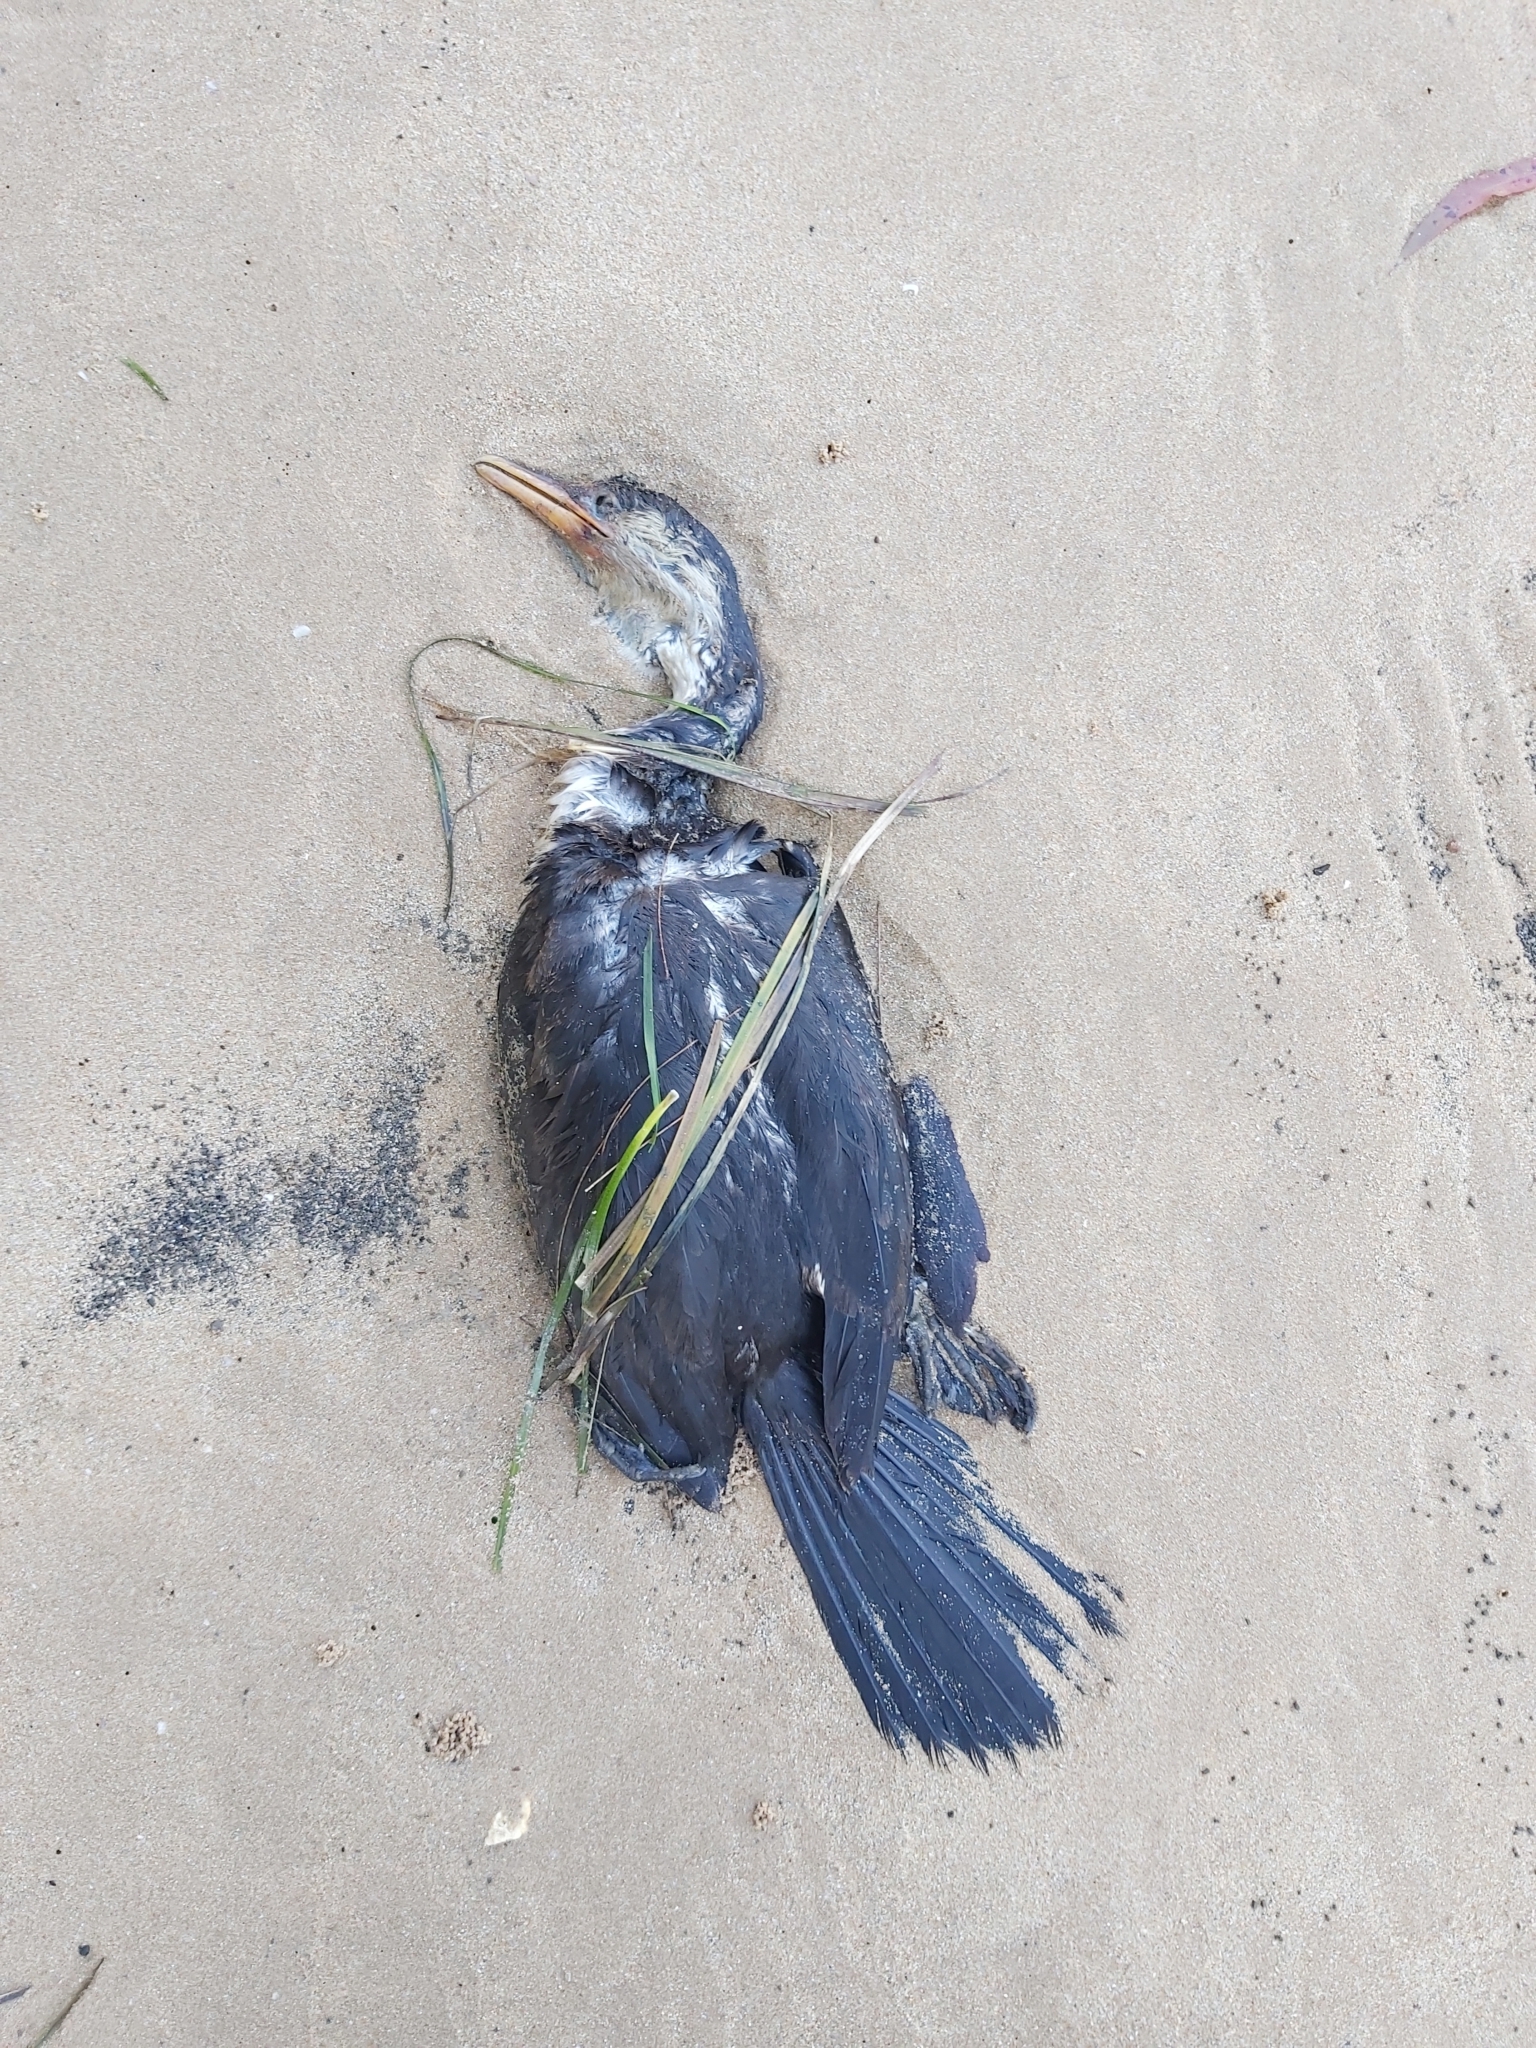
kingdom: Animalia
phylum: Chordata
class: Aves
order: Suliformes
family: Phalacrocoracidae
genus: Microcarbo
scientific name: Microcarbo melanoleucos
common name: Little pied cormorant
